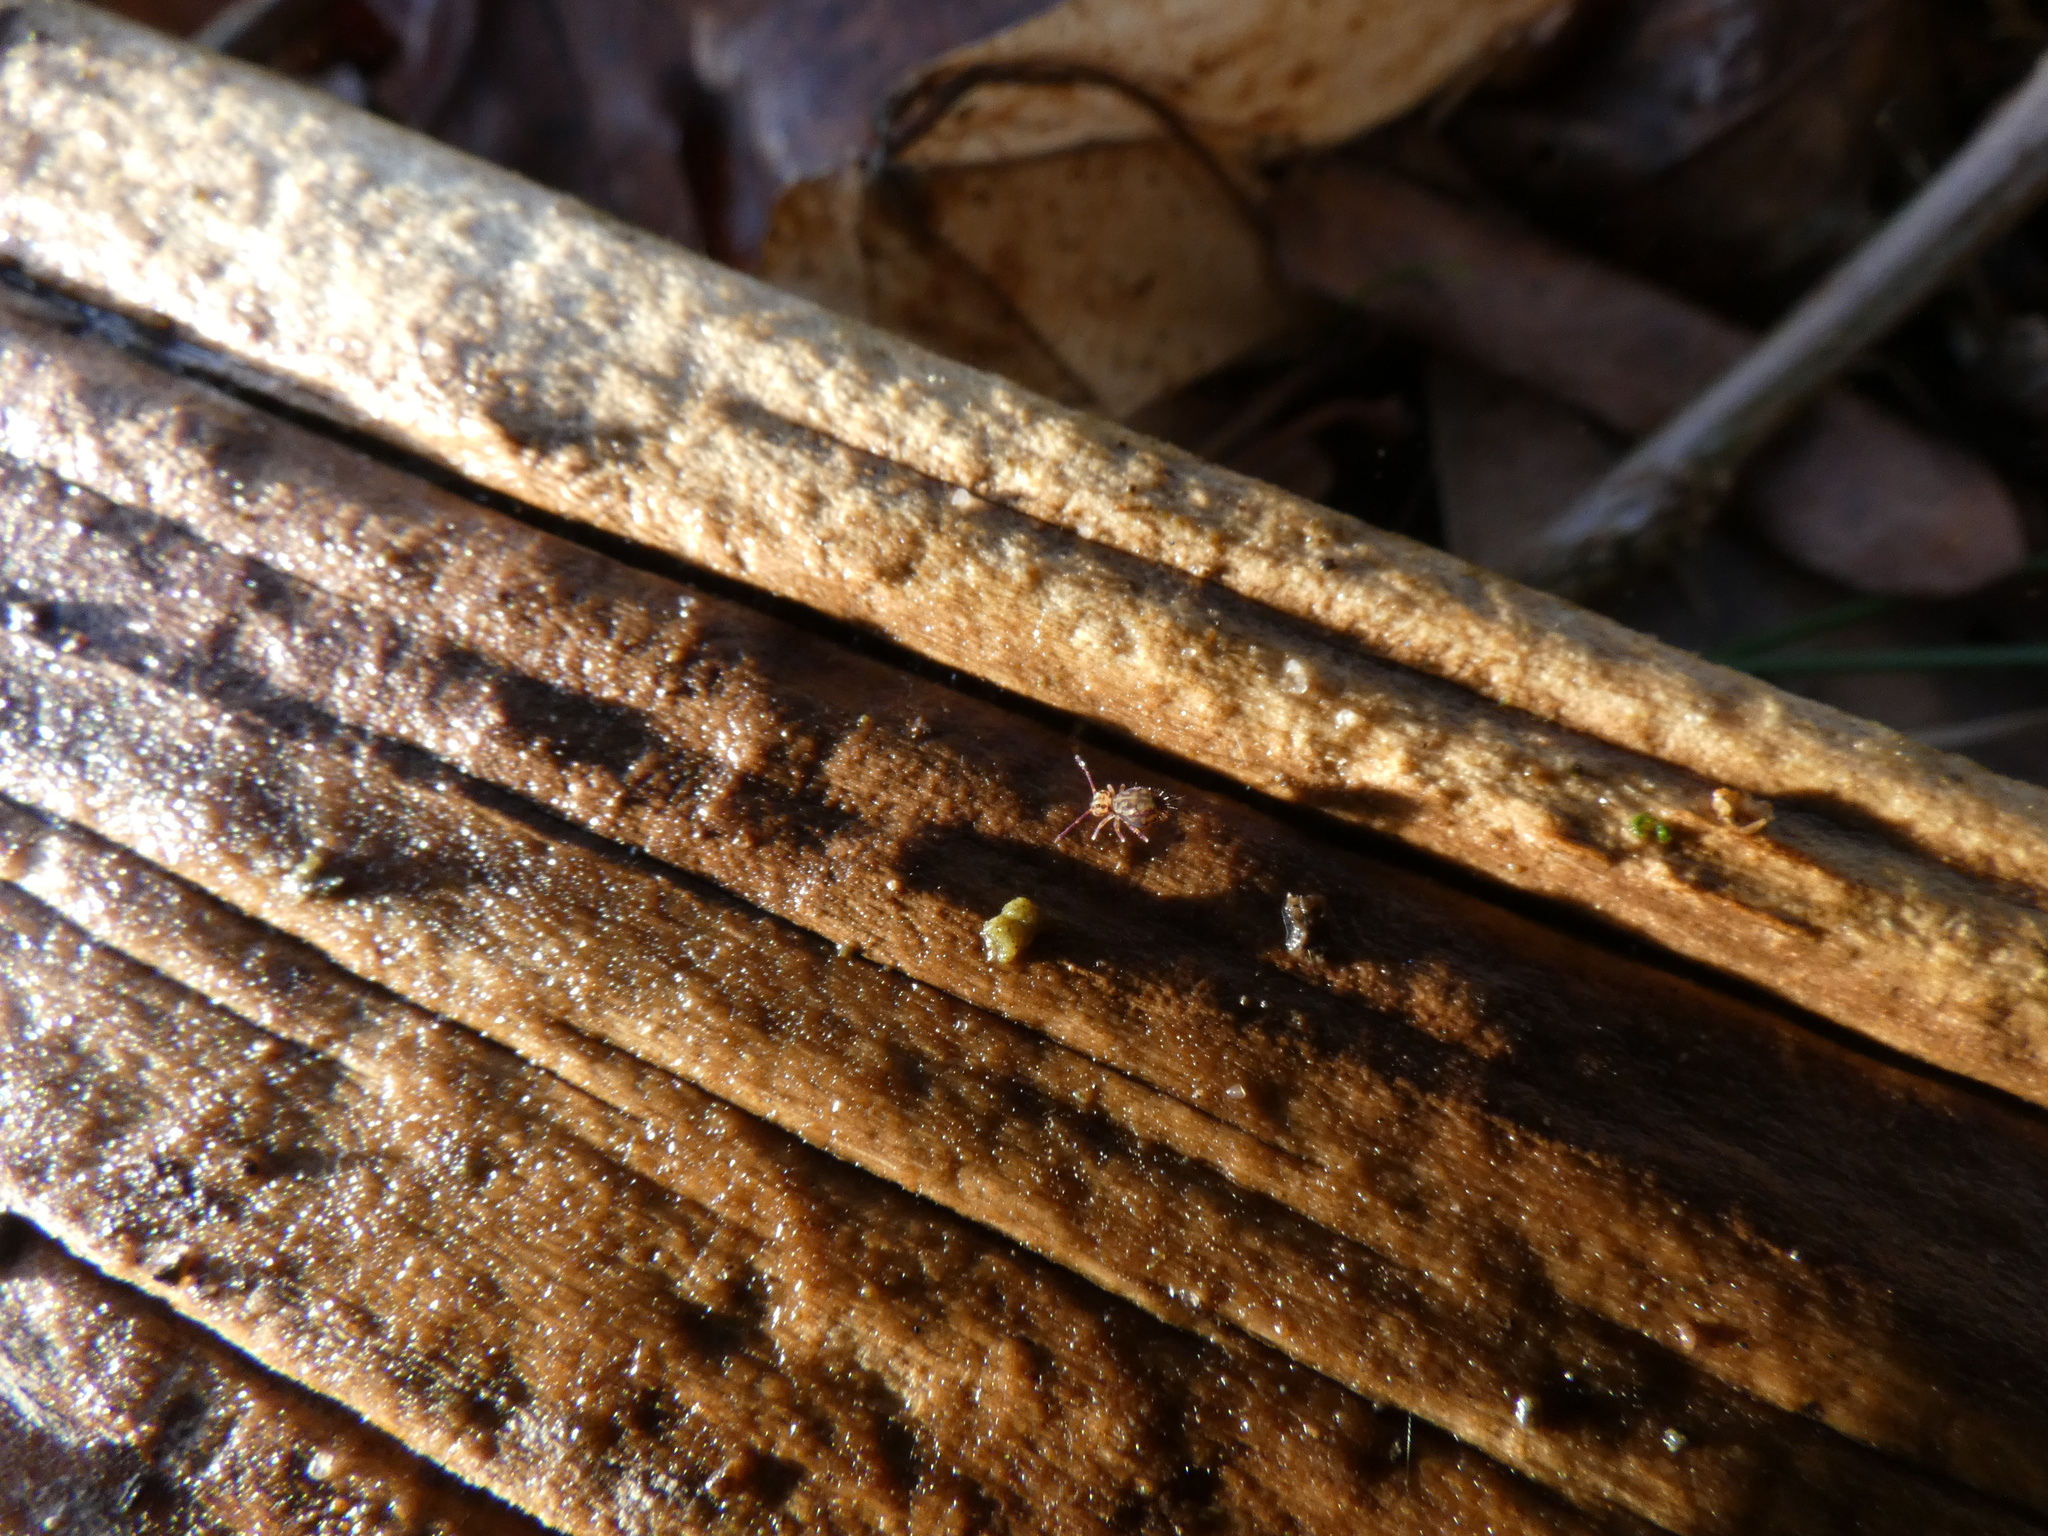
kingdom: Animalia
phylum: Arthropoda
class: Collembola
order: Symphypleona
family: Dicyrtomidae
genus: Dicyrtomina
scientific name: Dicyrtomina saundersi
